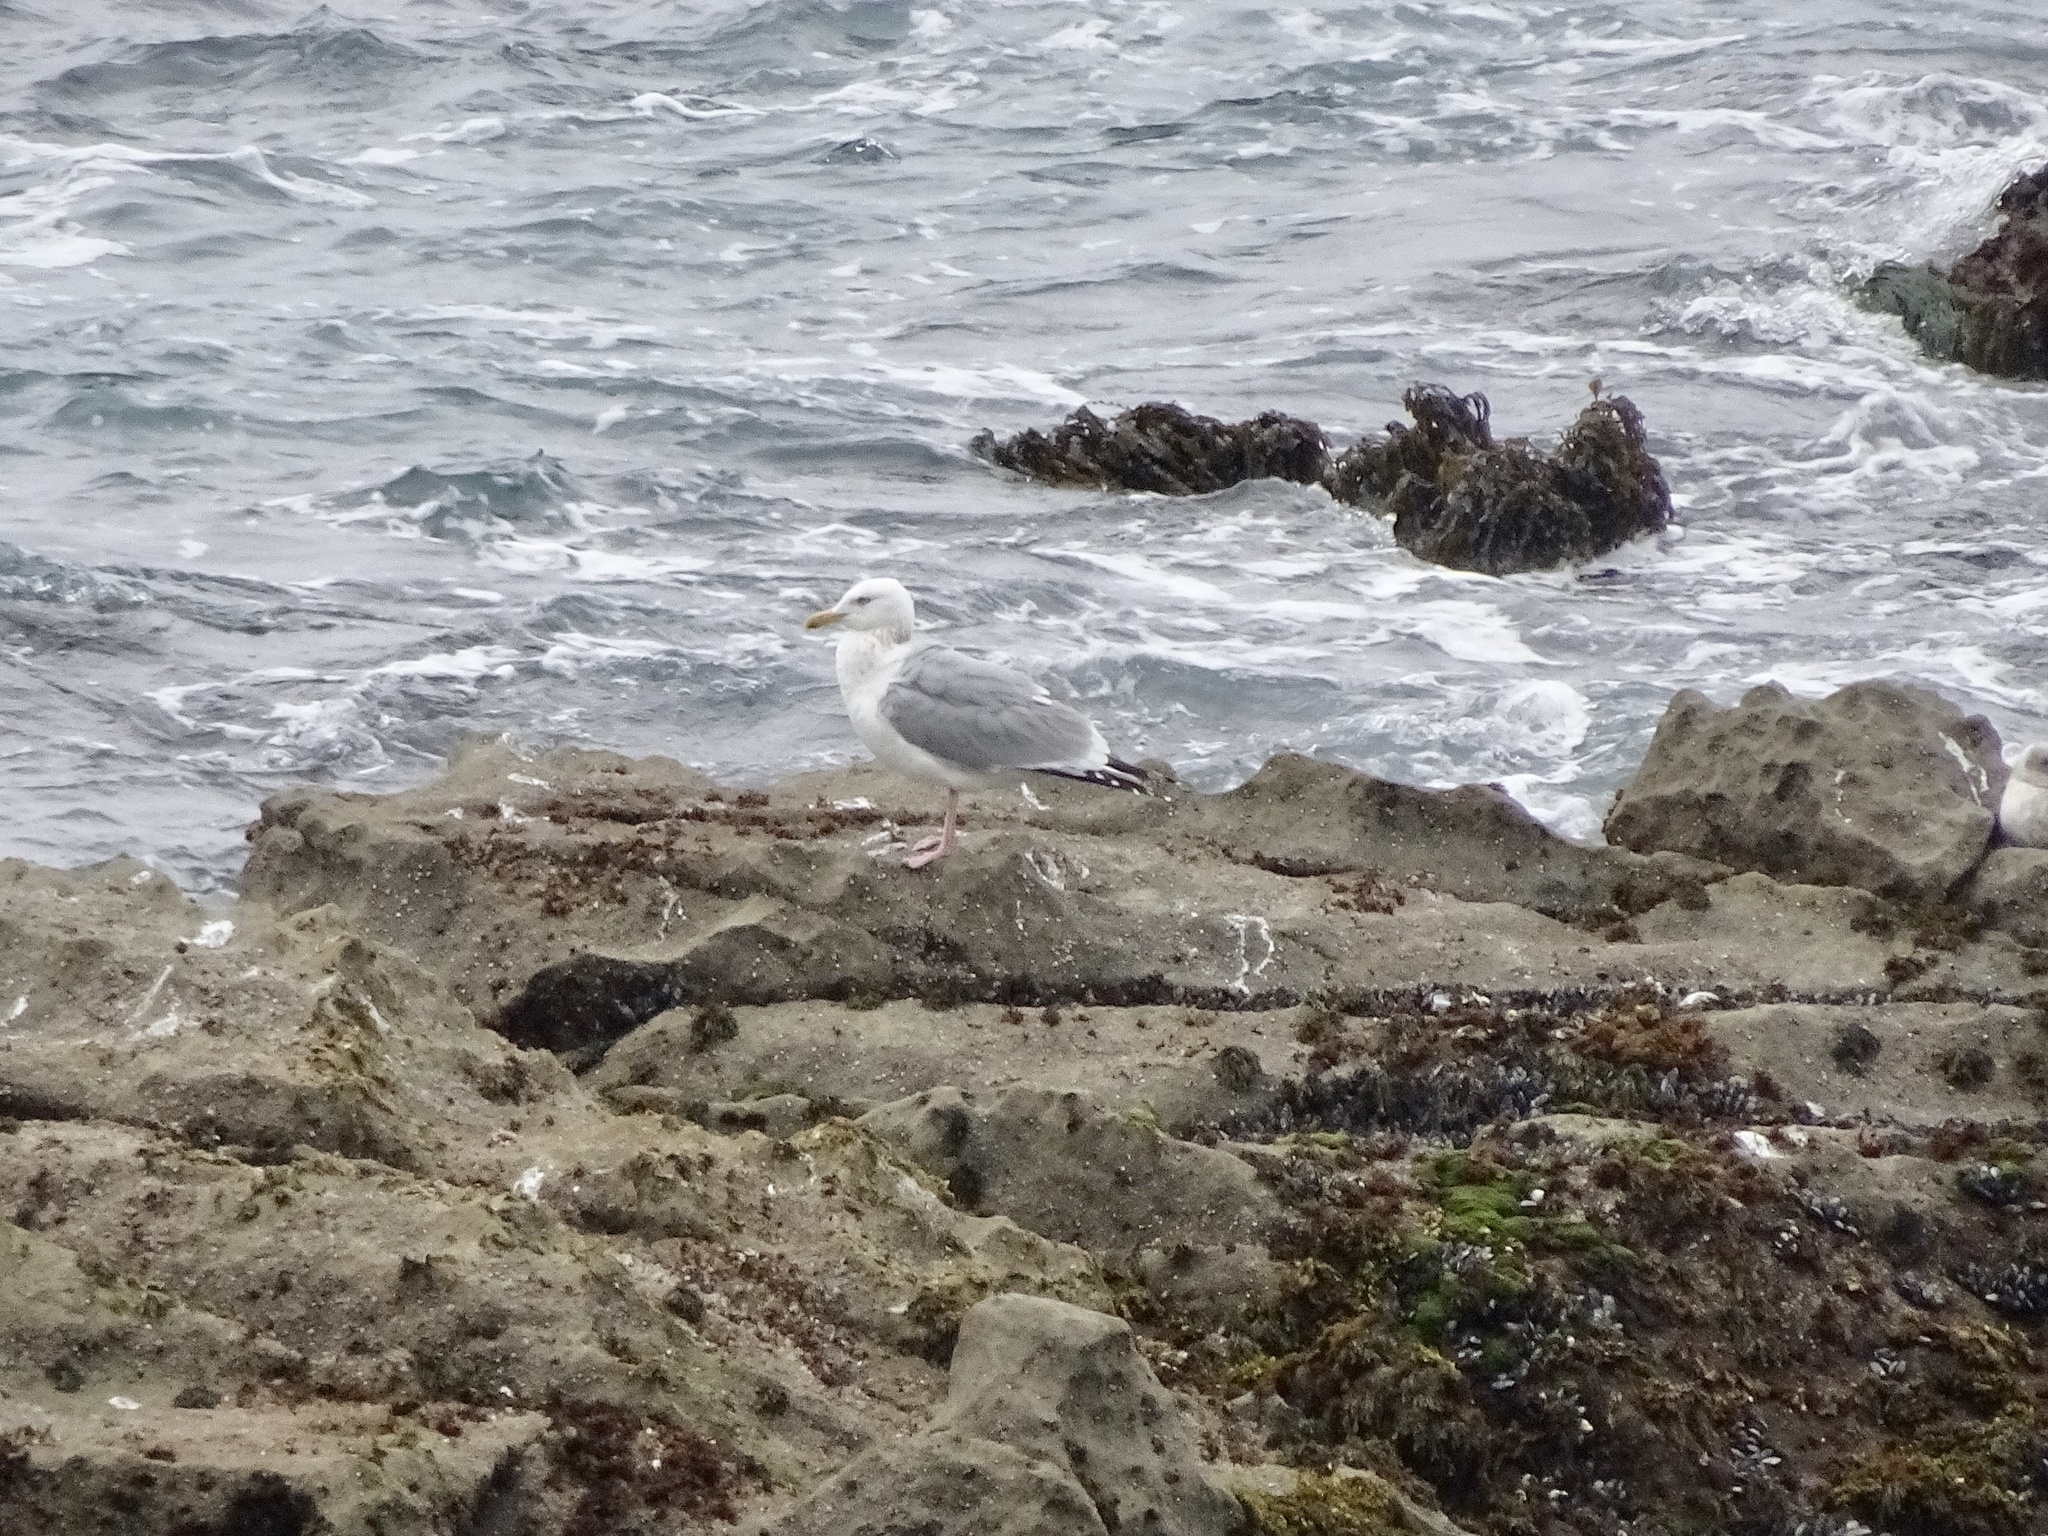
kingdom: Animalia
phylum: Chordata
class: Aves
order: Charadriiformes
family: Laridae
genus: Larus
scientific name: Larus argentatus
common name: Herring gull
